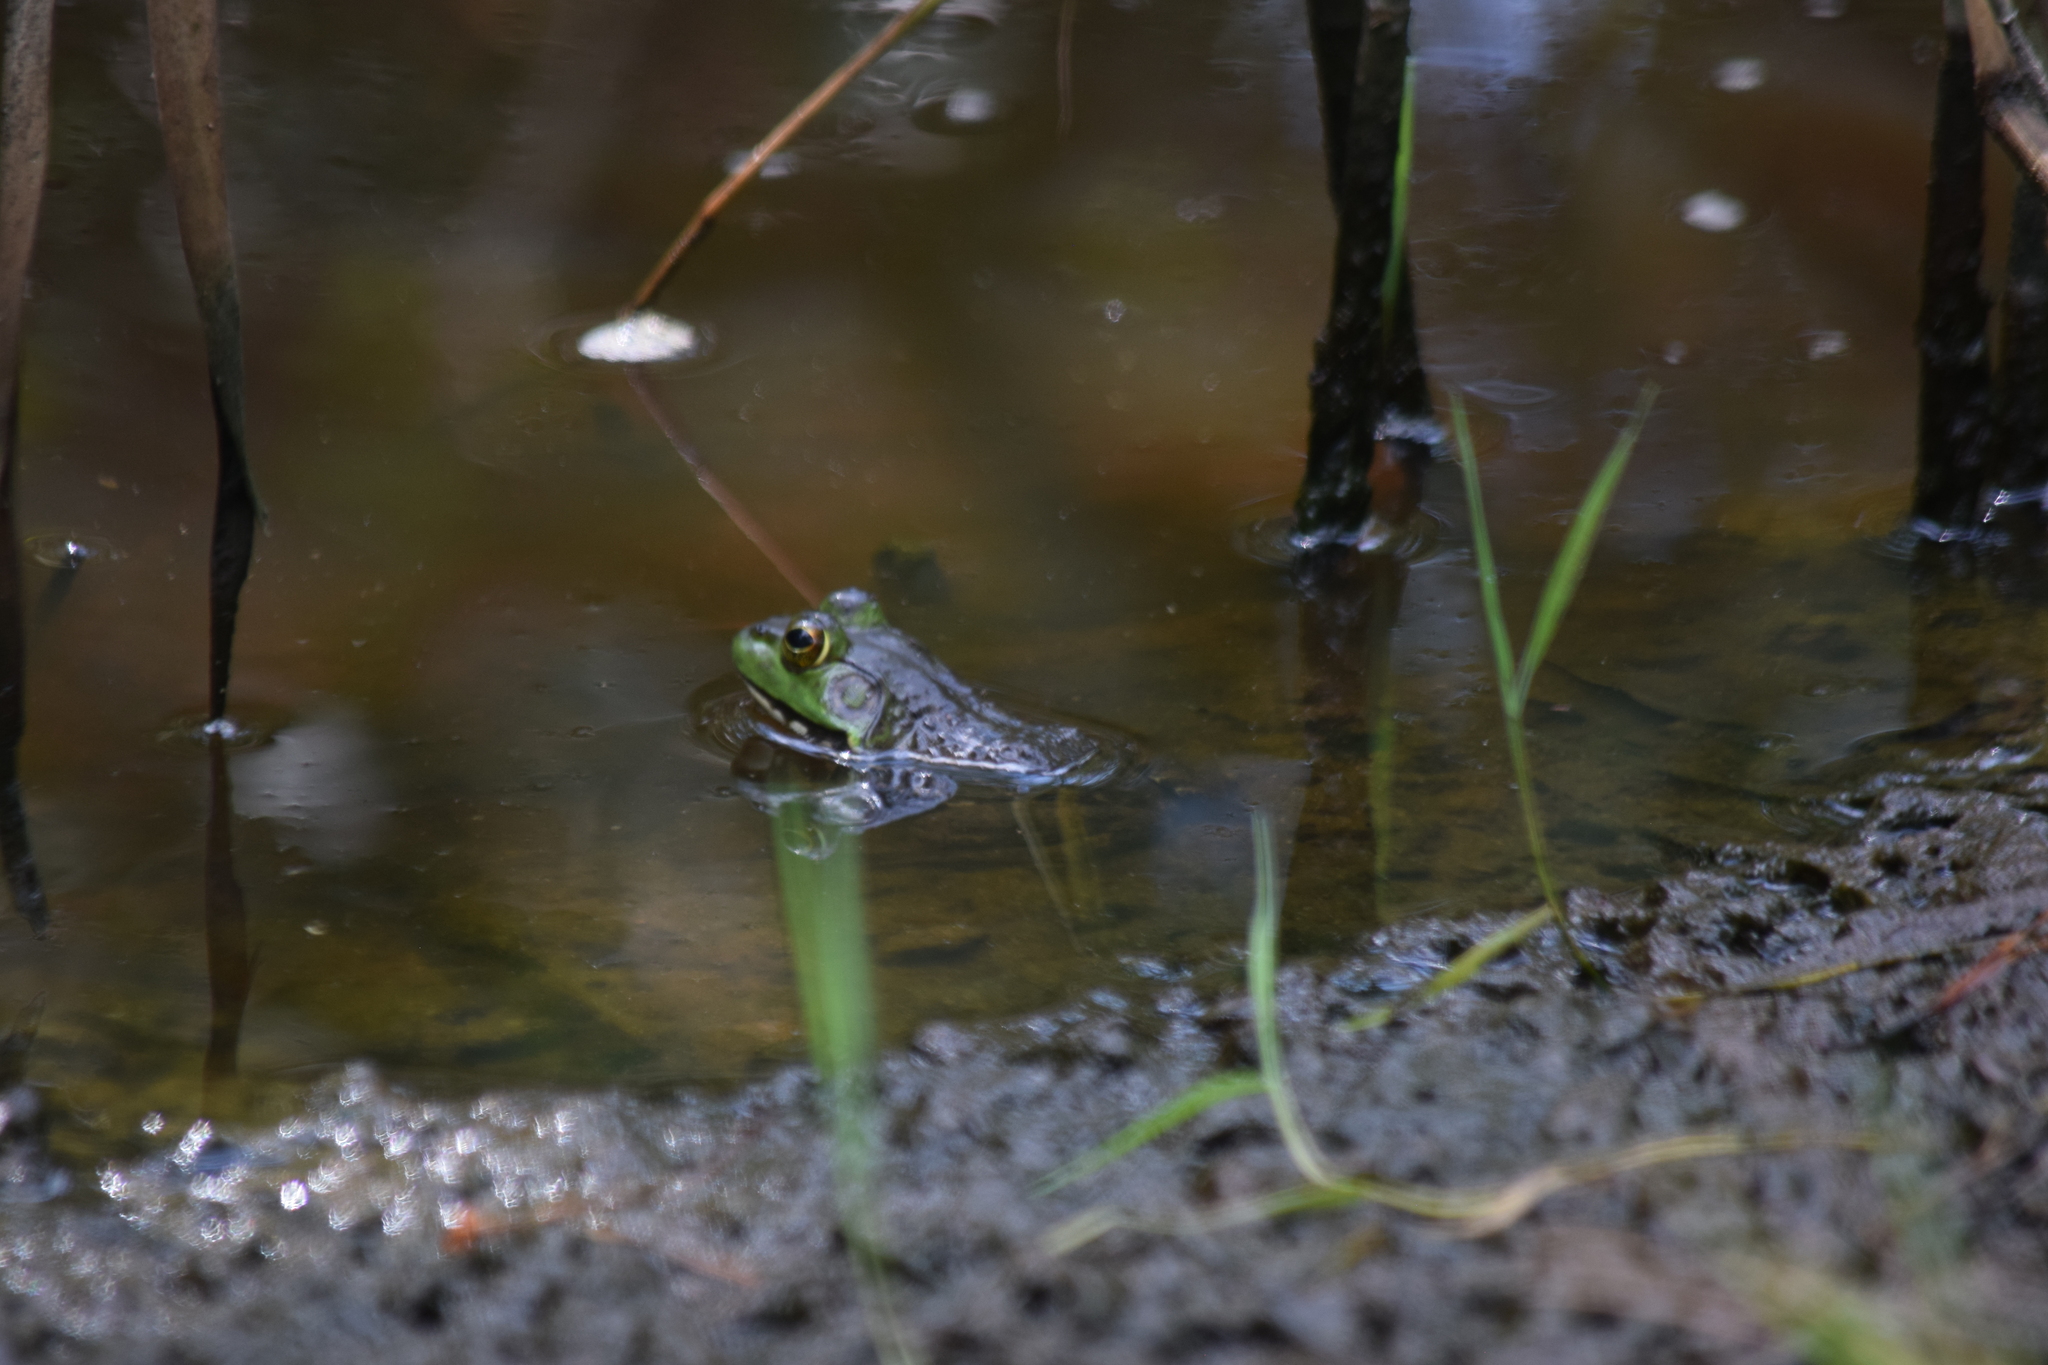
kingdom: Animalia
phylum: Chordata
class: Amphibia
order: Anura
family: Ranidae
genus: Lithobates
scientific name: Lithobates catesbeianus
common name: American bullfrog
